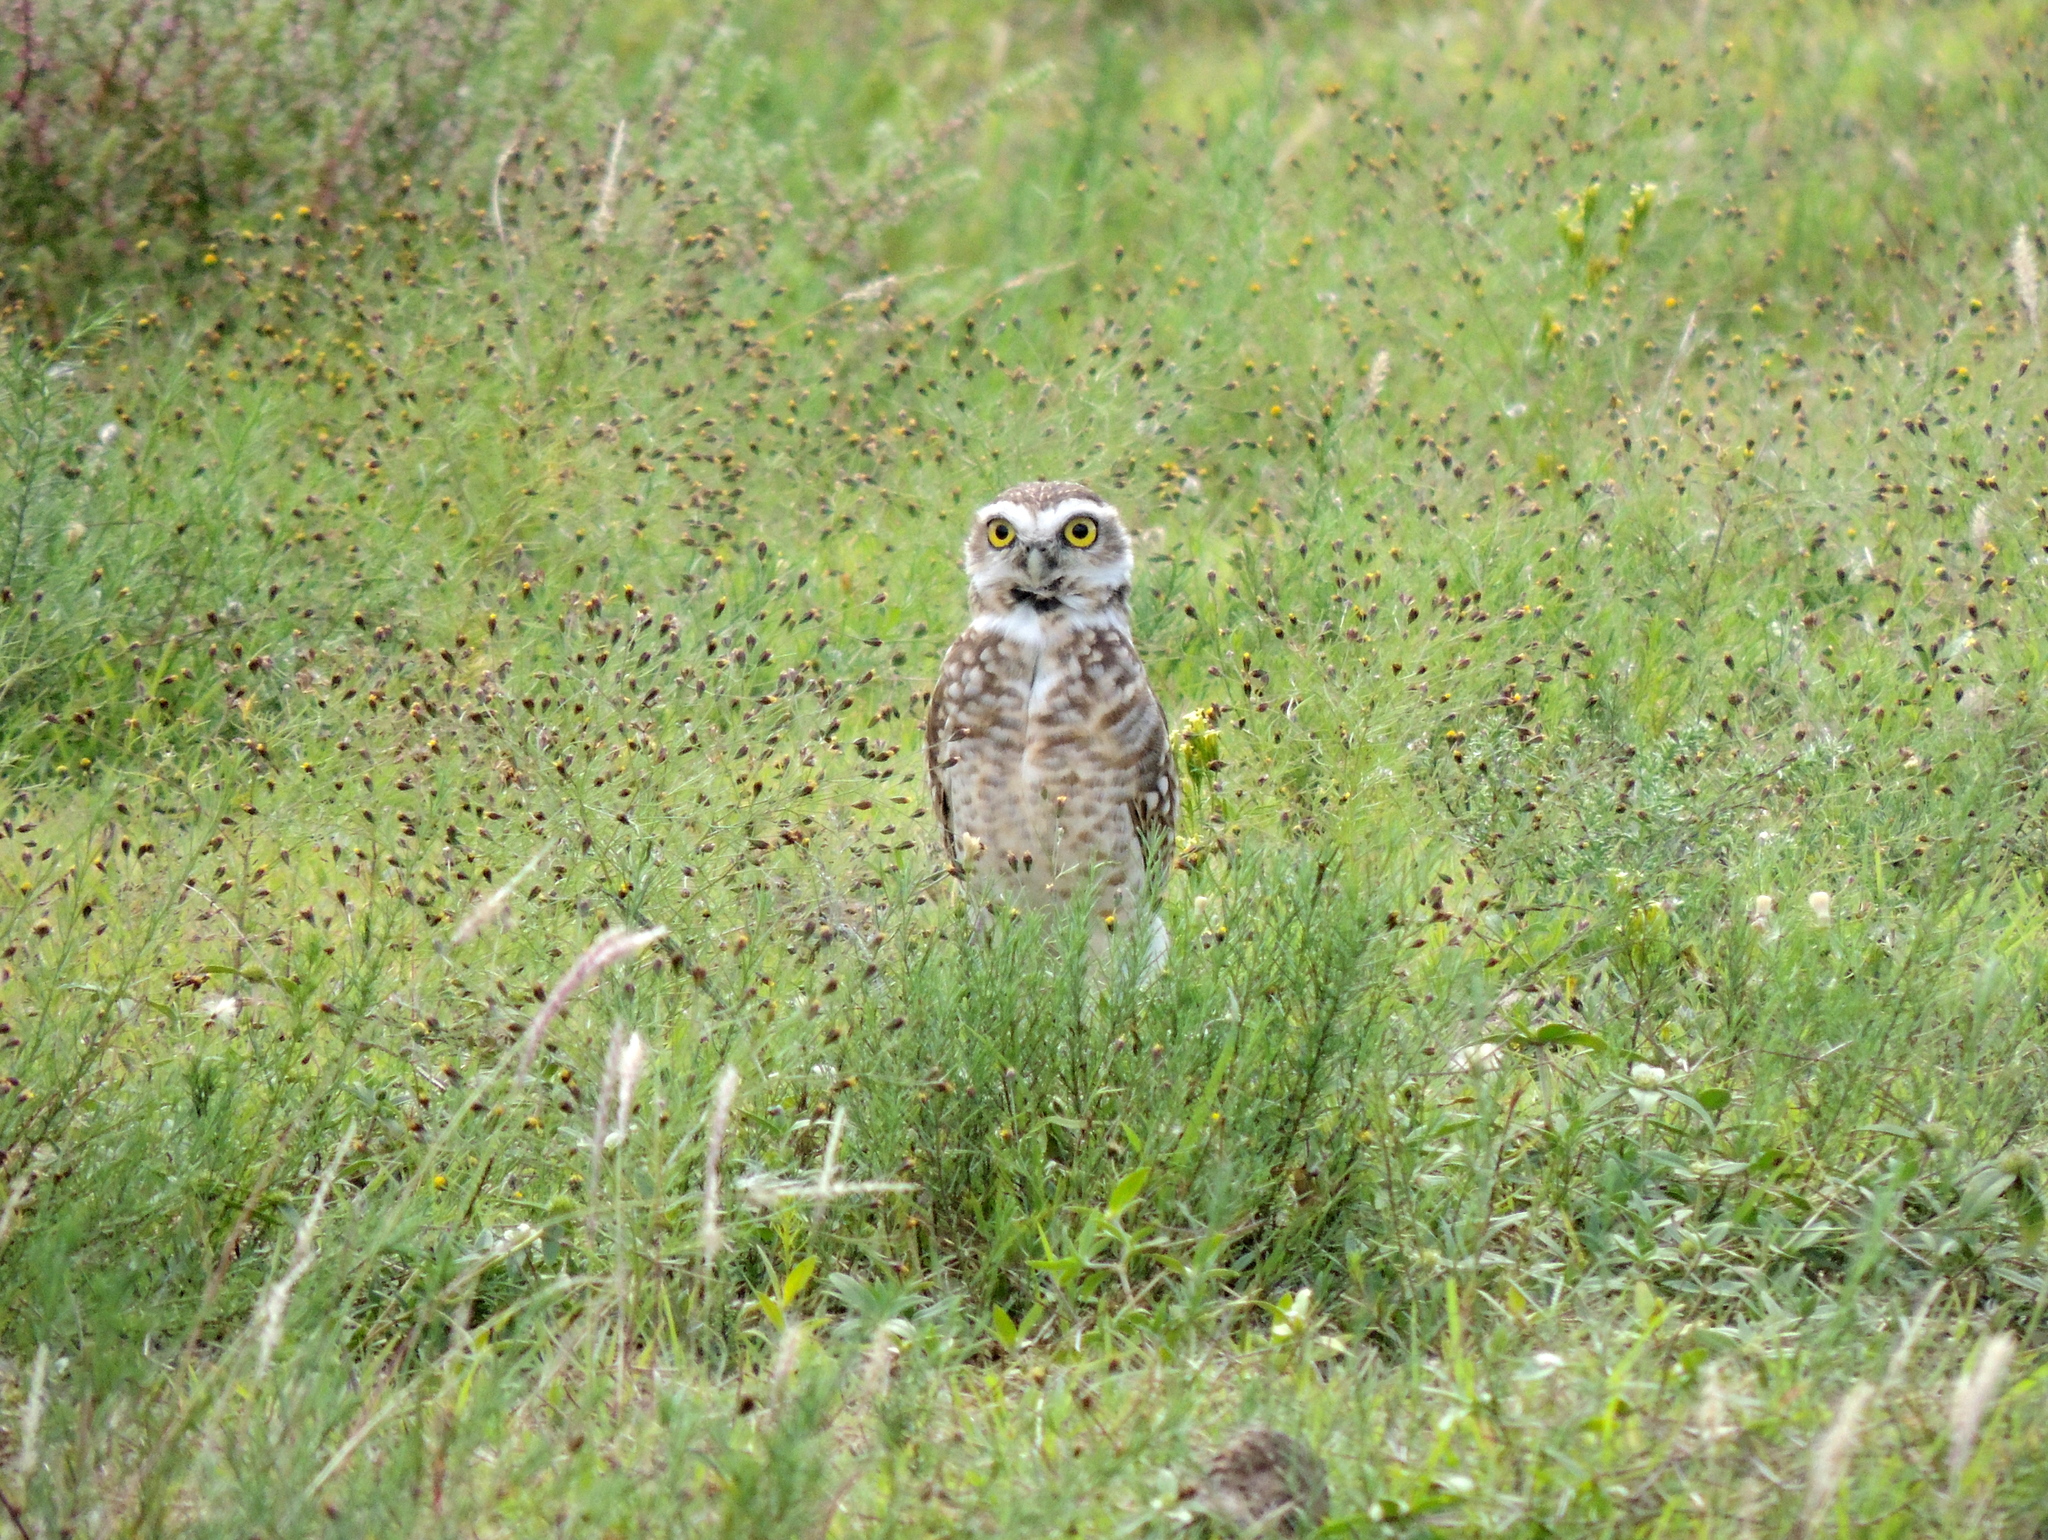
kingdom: Animalia
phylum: Chordata
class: Aves
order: Strigiformes
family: Strigidae
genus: Athene
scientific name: Athene cunicularia
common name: Burrowing owl
